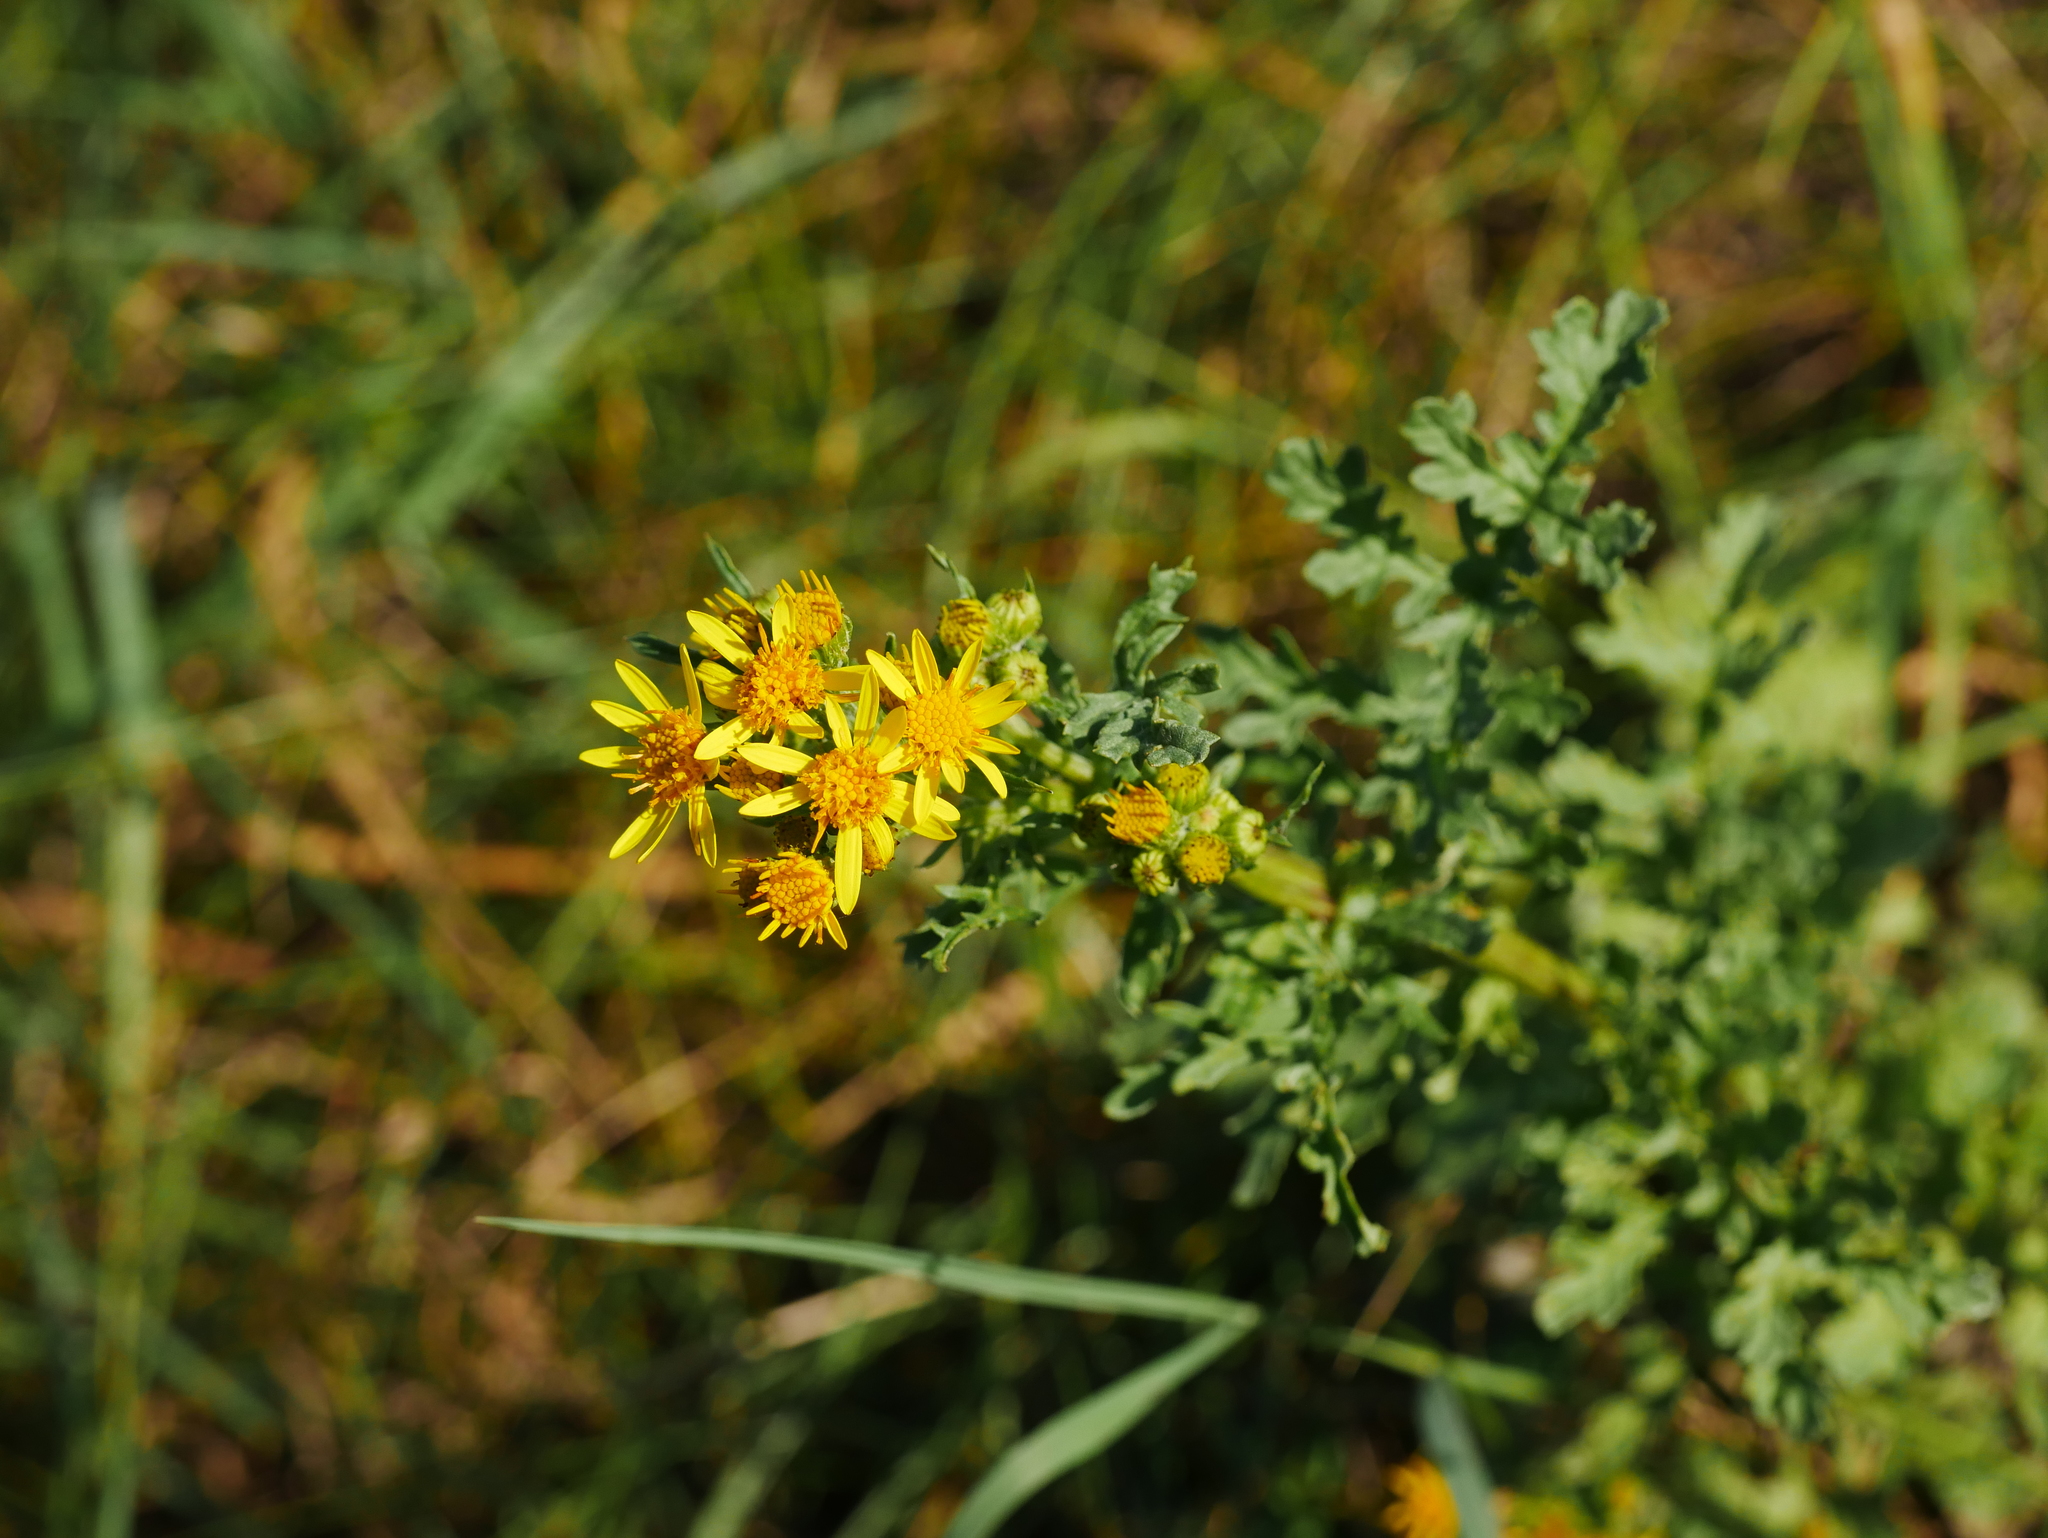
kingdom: Plantae
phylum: Tracheophyta
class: Magnoliopsida
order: Asterales
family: Asteraceae
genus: Jacobaea
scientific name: Jacobaea vulgaris
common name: Stinking willie
